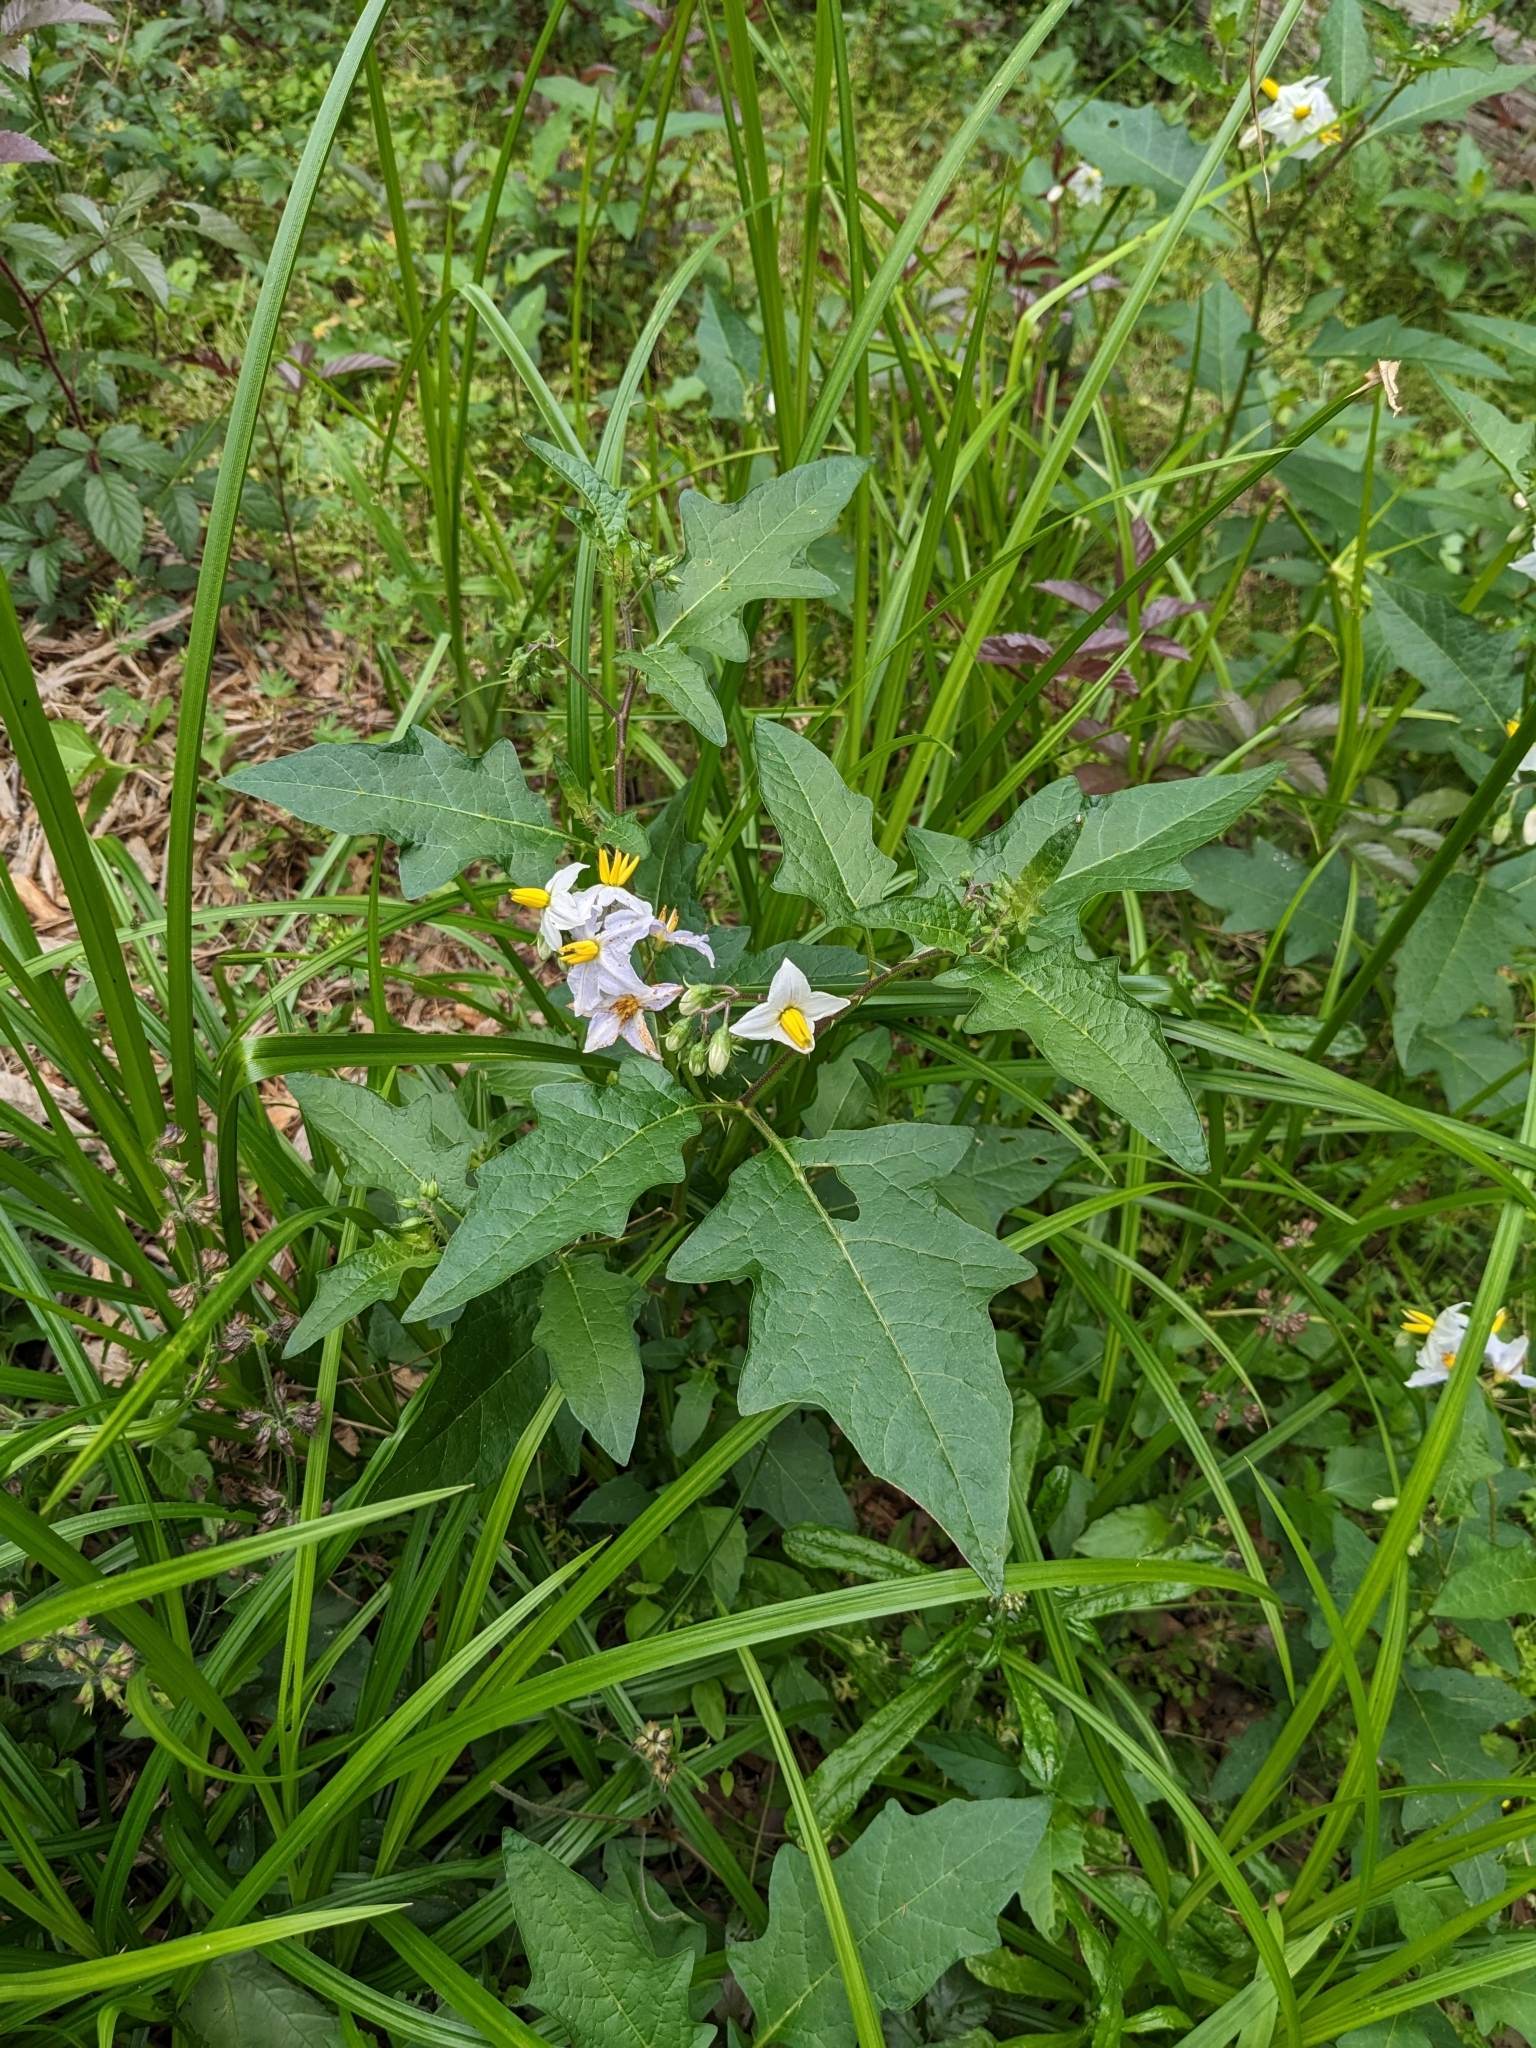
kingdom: Plantae
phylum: Tracheophyta
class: Magnoliopsida
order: Solanales
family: Solanaceae
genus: Solanum
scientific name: Solanum carolinense
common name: Horse-nettle
